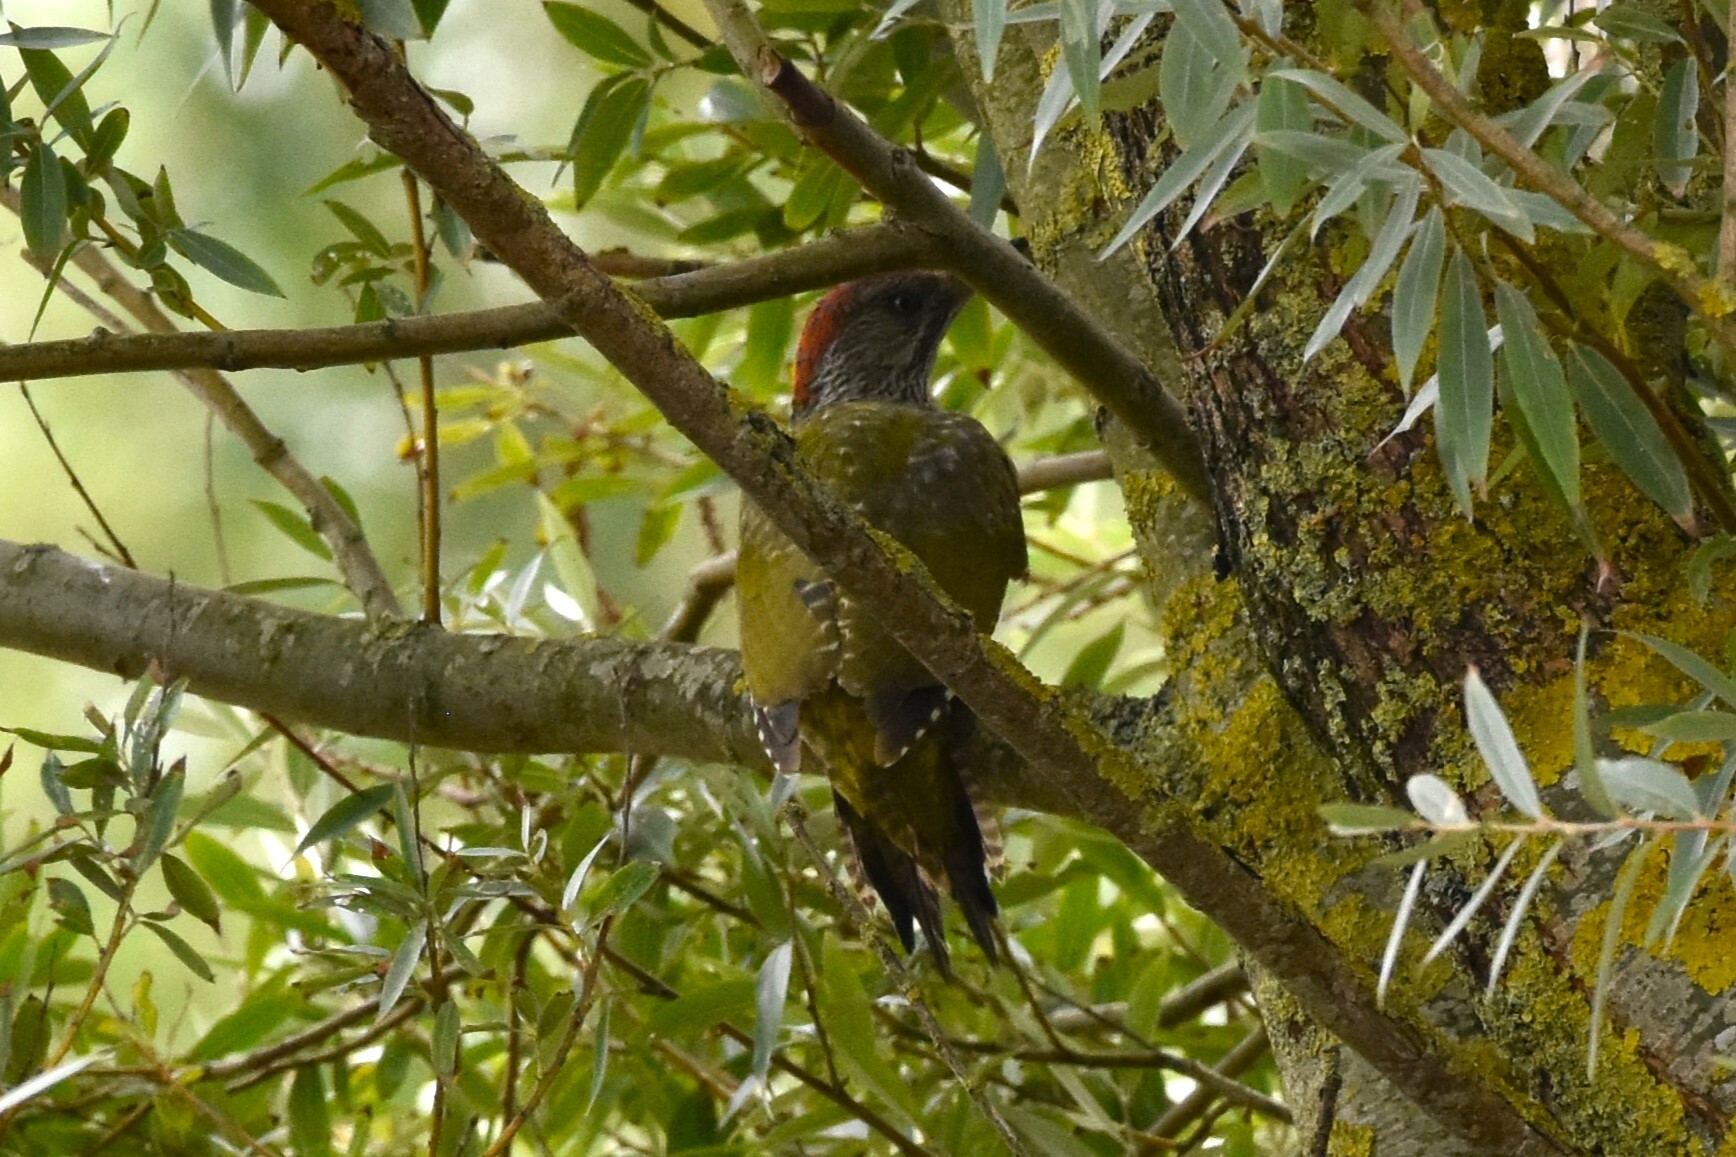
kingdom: Animalia
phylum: Chordata
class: Aves
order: Piciformes
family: Picidae
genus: Picus
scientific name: Picus viridis
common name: European green woodpecker
